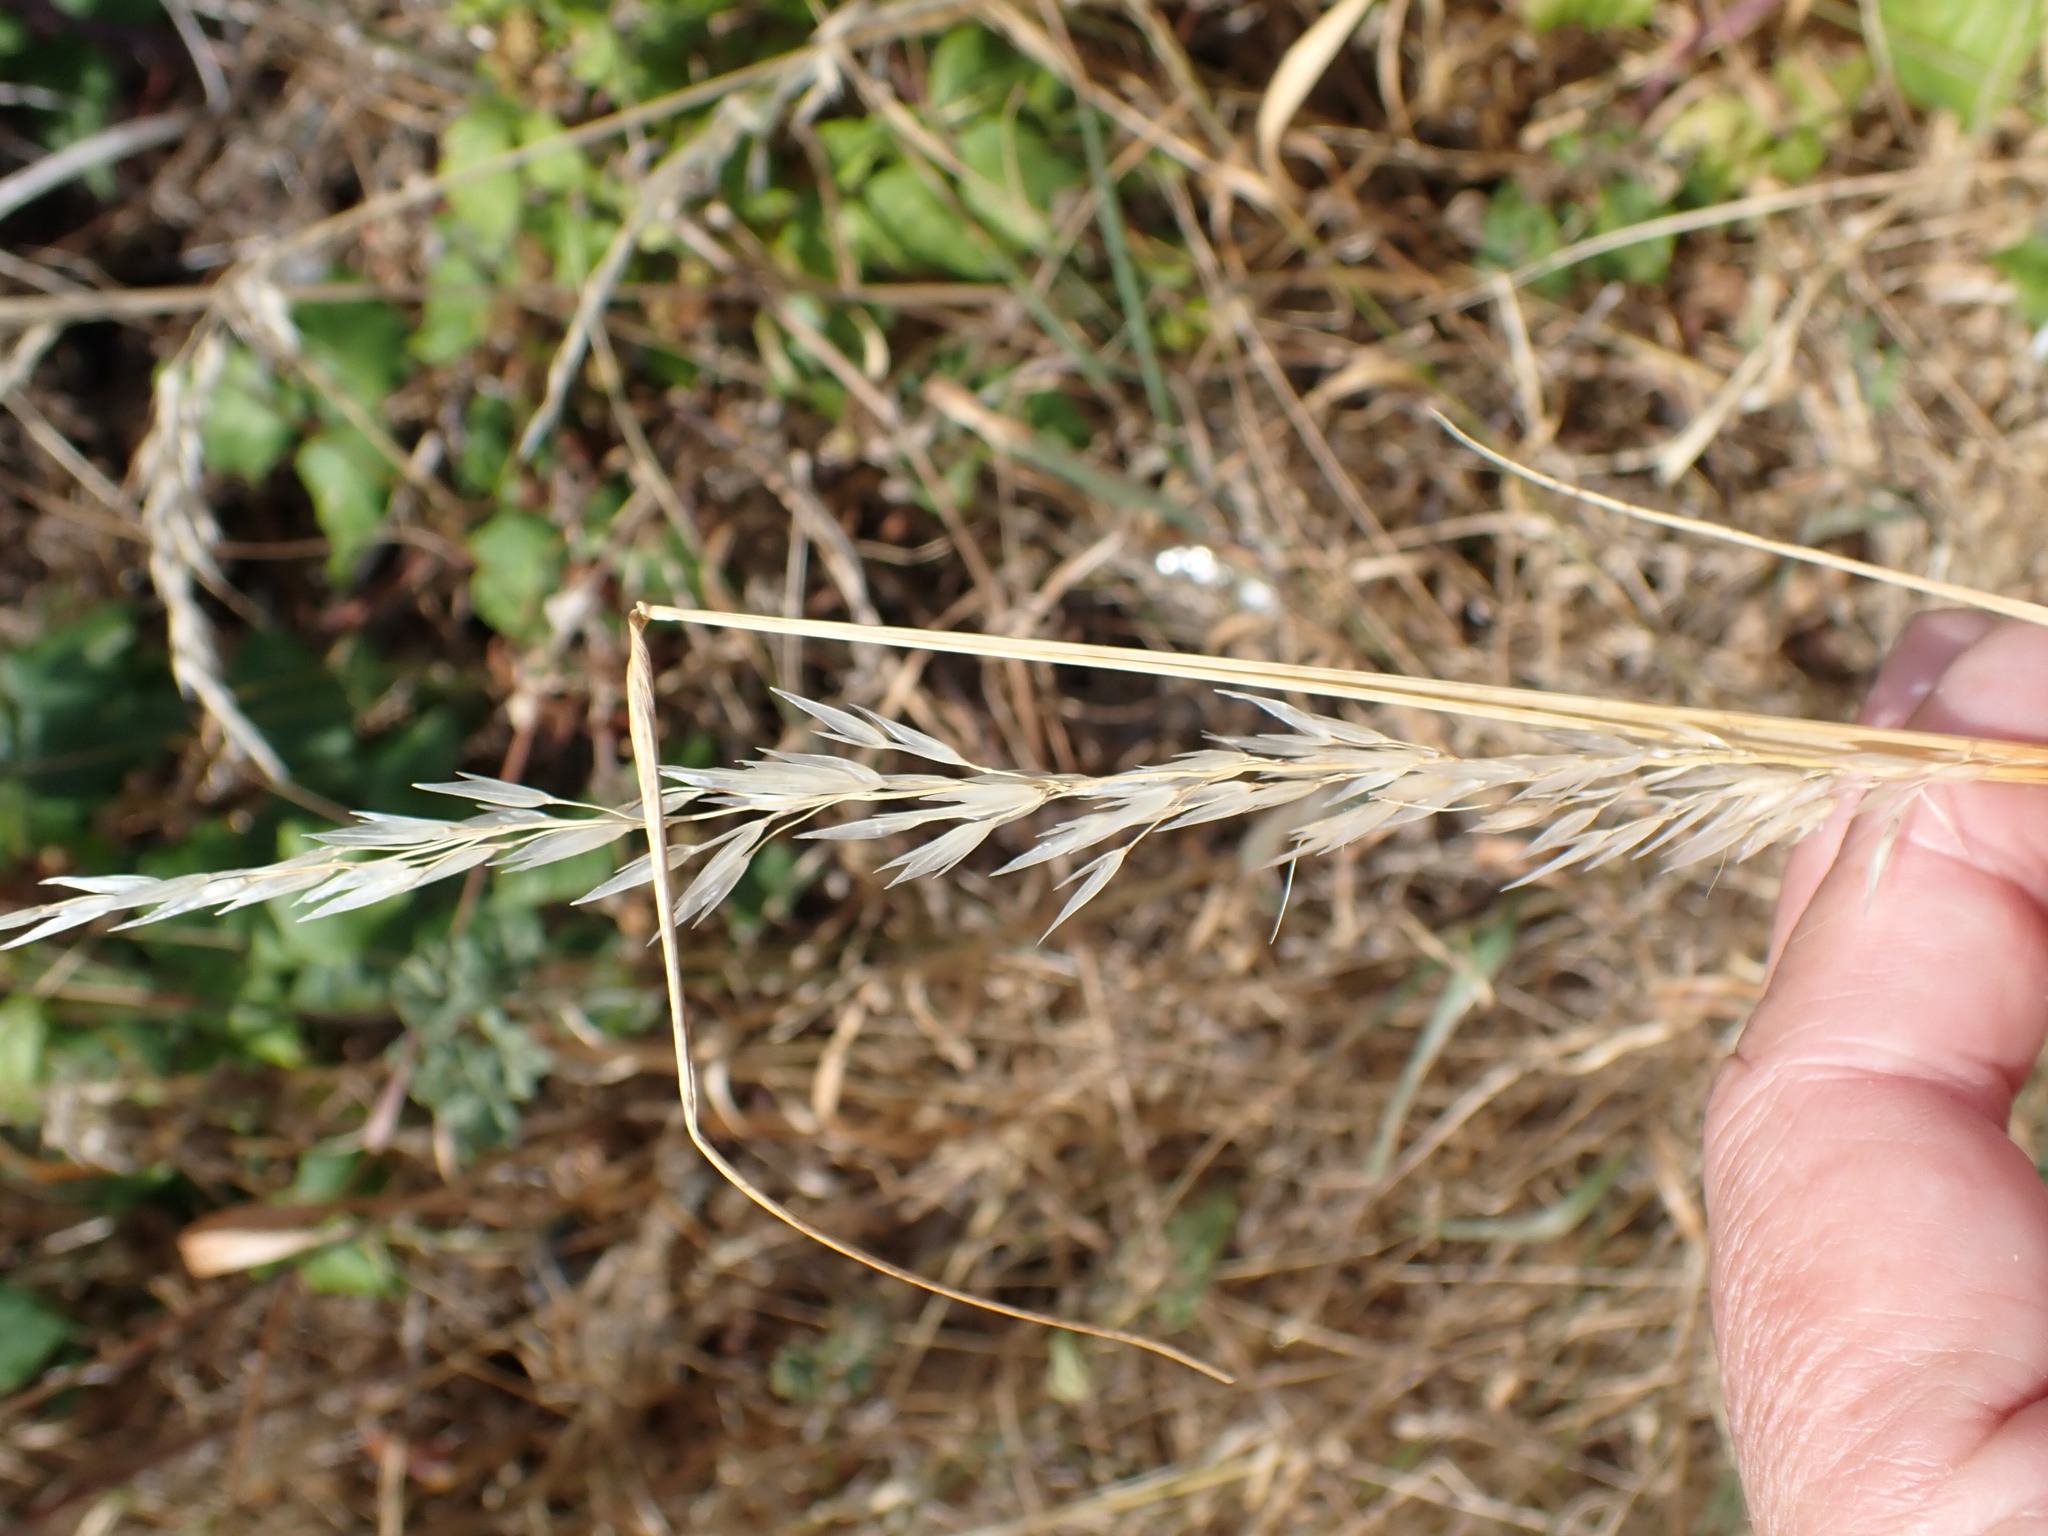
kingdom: Plantae
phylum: Tracheophyta
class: Liliopsida
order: Poales
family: Poaceae
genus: Arrhenatherum
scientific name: Arrhenatherum elatius
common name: Tall oatgrass
